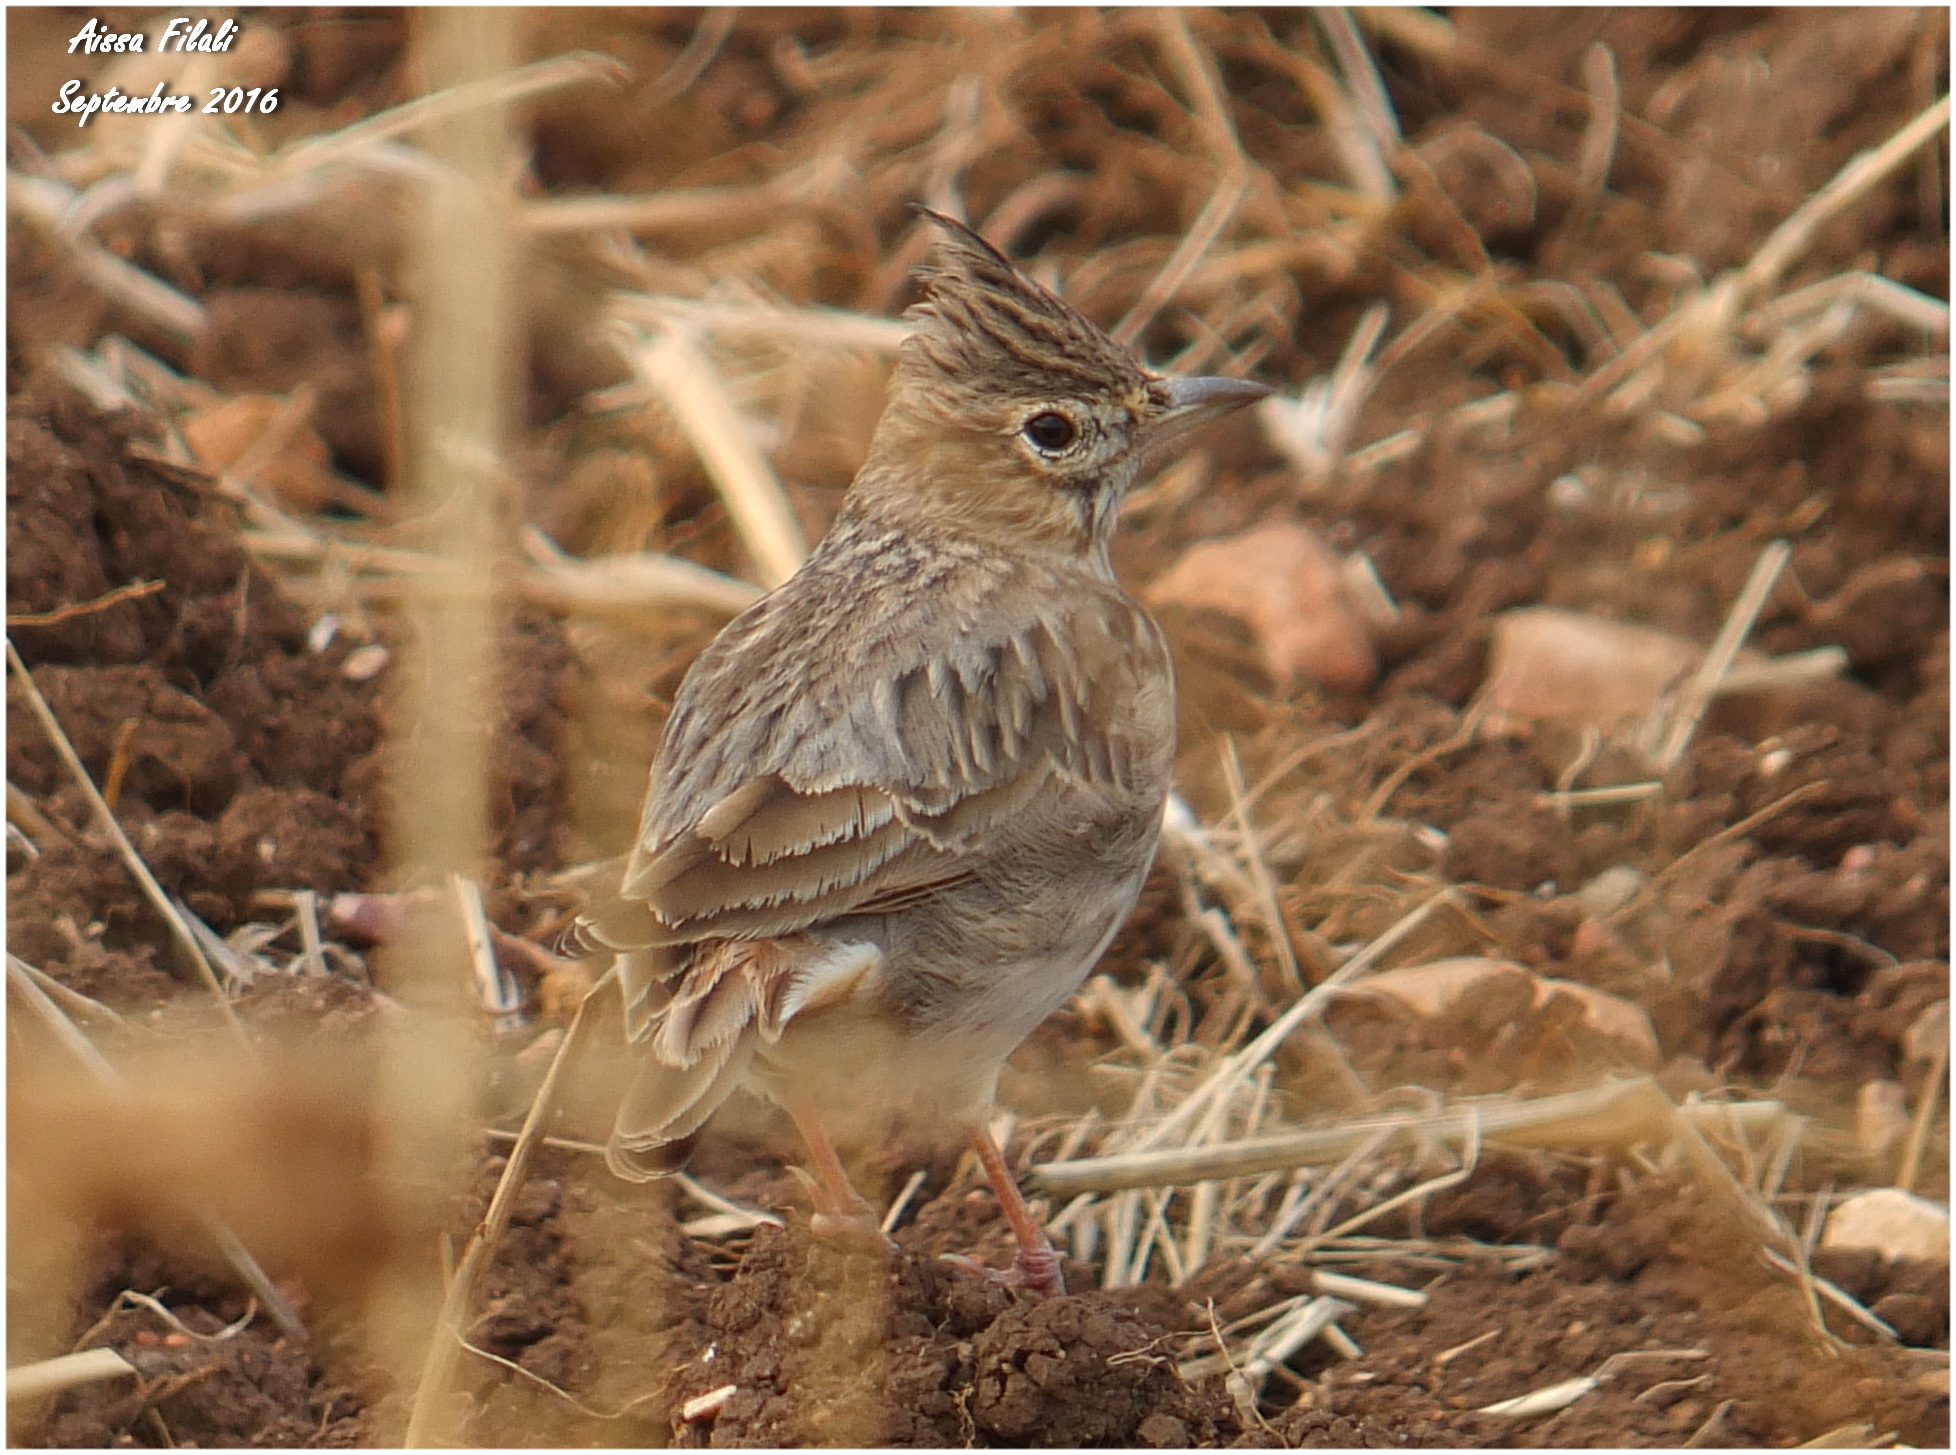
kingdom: Animalia
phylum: Chordata
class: Aves
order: Passeriformes
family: Alaudidae
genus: Galerida
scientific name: Galerida theklae
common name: Thekla lark
